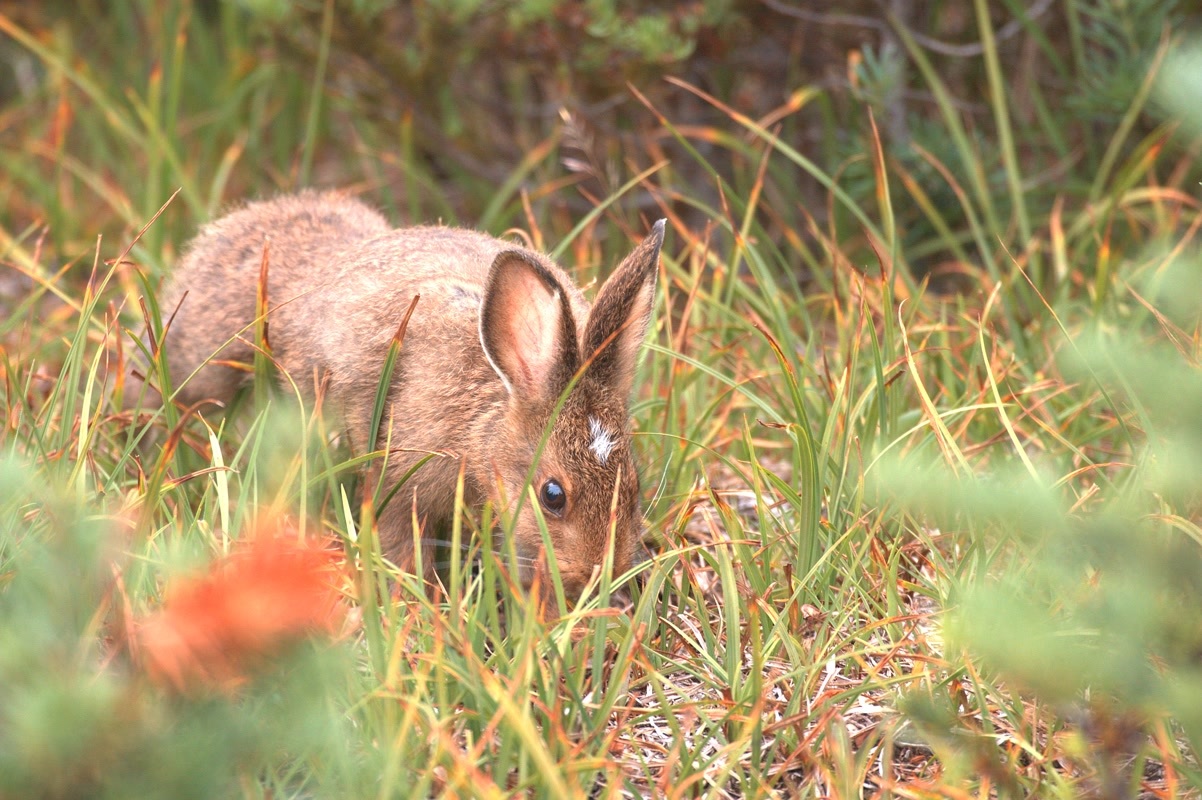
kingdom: Animalia
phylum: Chordata
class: Mammalia
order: Lagomorpha
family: Leporidae
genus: Lepus
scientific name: Lepus americanus
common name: Snowshoe hare
